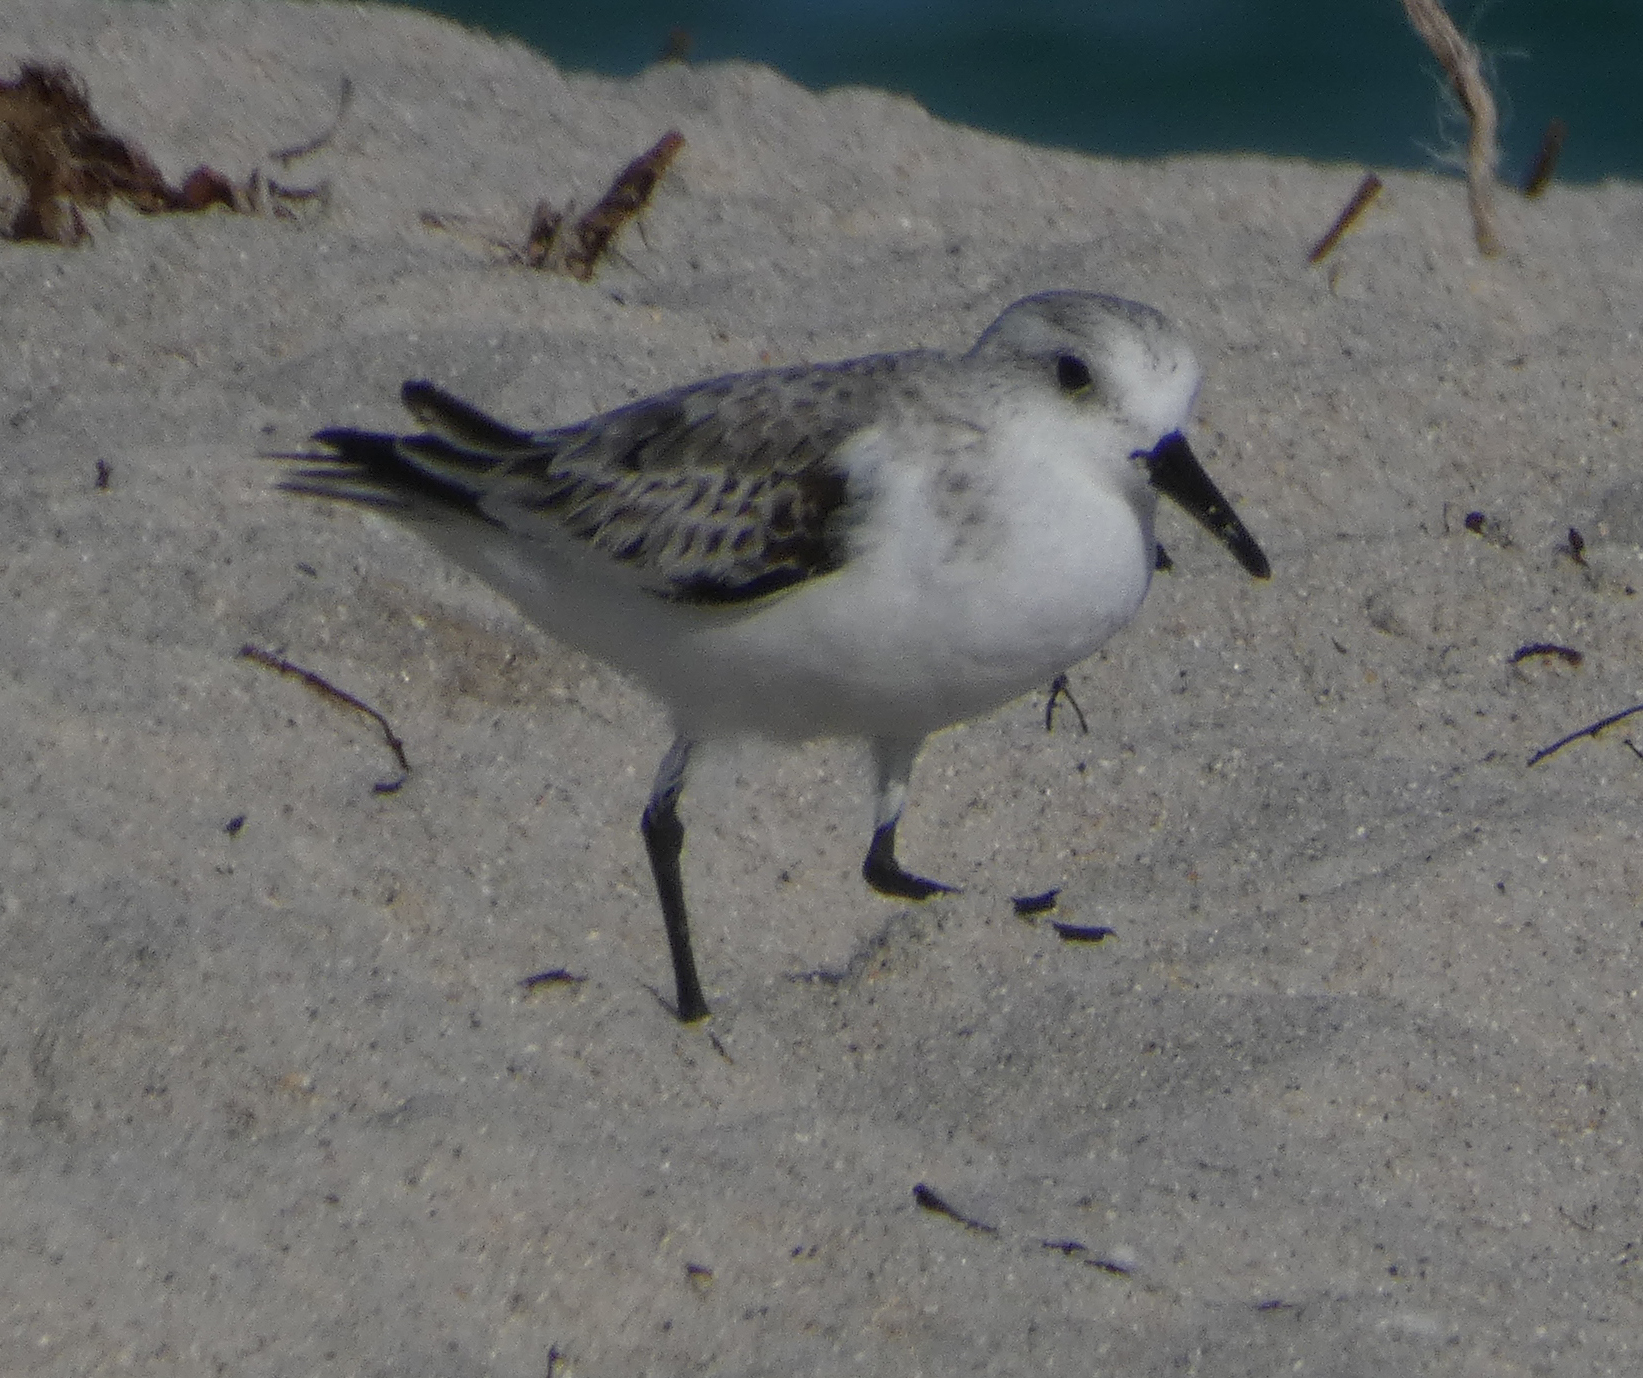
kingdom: Animalia
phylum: Chordata
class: Aves
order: Charadriiformes
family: Scolopacidae
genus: Calidris
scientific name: Calidris alba
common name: Sanderling
